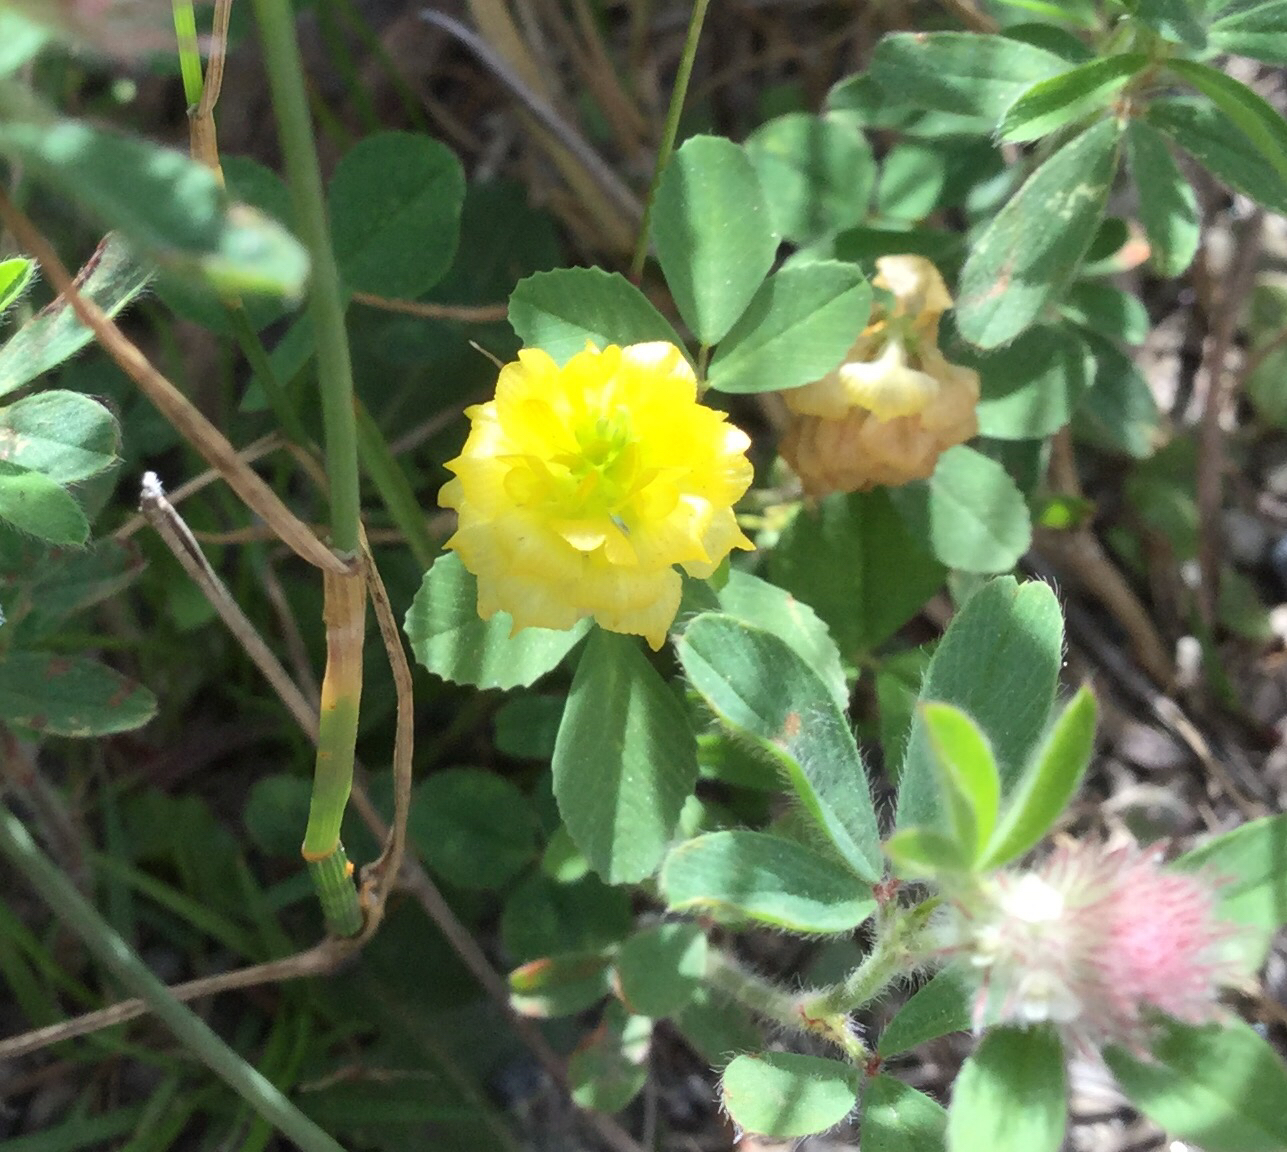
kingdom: Plantae
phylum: Tracheophyta
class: Magnoliopsida
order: Fabales
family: Fabaceae
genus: Trifolium
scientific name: Trifolium campestre
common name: Field clover
